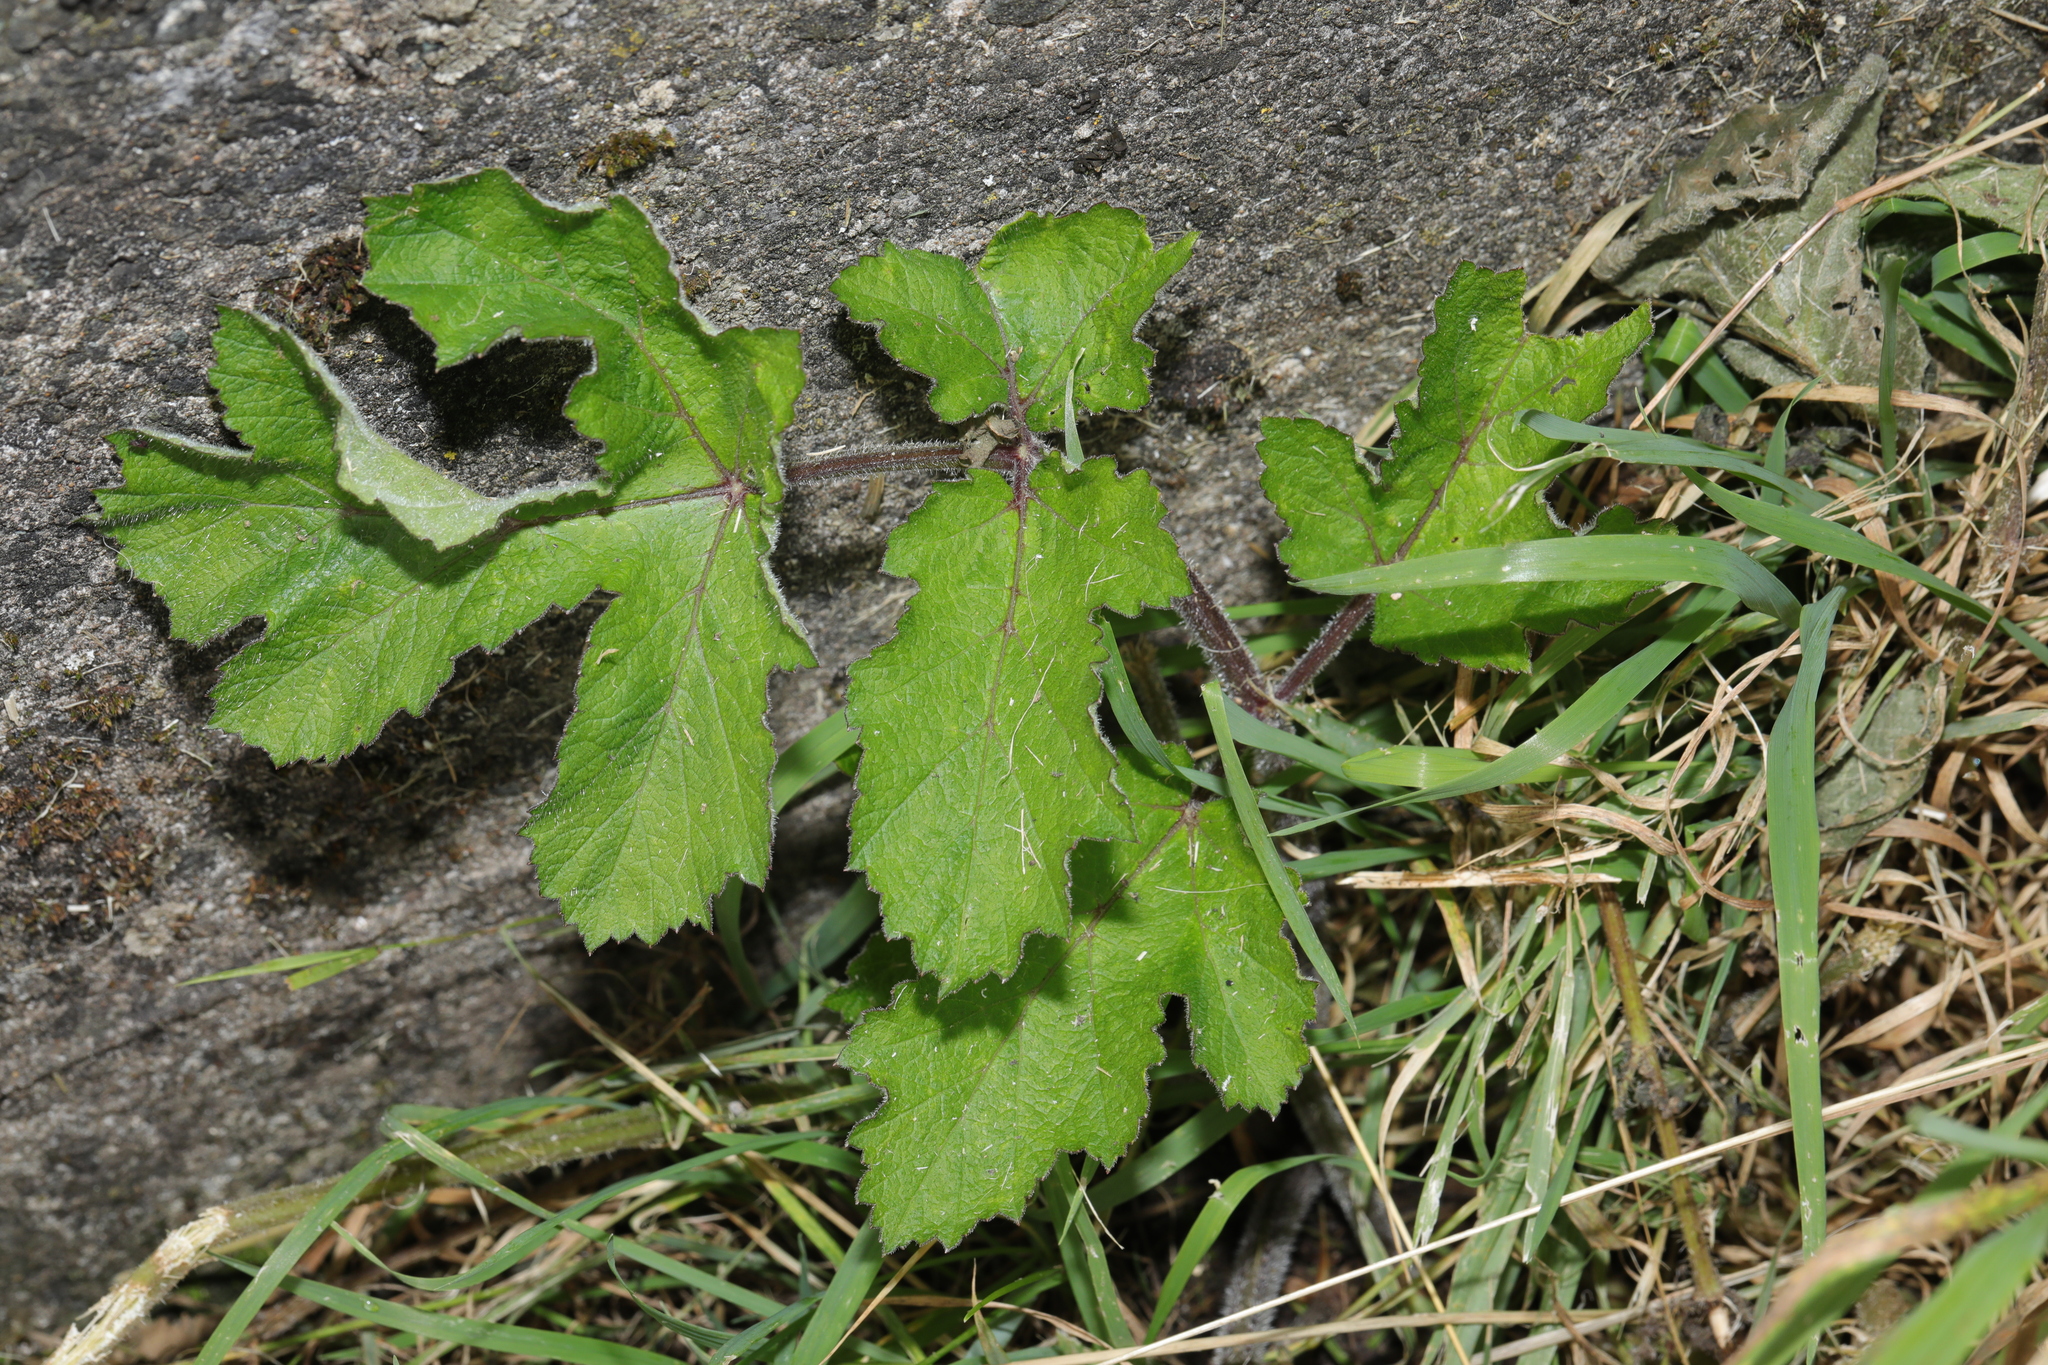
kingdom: Plantae
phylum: Tracheophyta
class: Magnoliopsida
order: Apiales
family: Apiaceae
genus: Heracleum
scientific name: Heracleum sphondylium
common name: Hogweed
